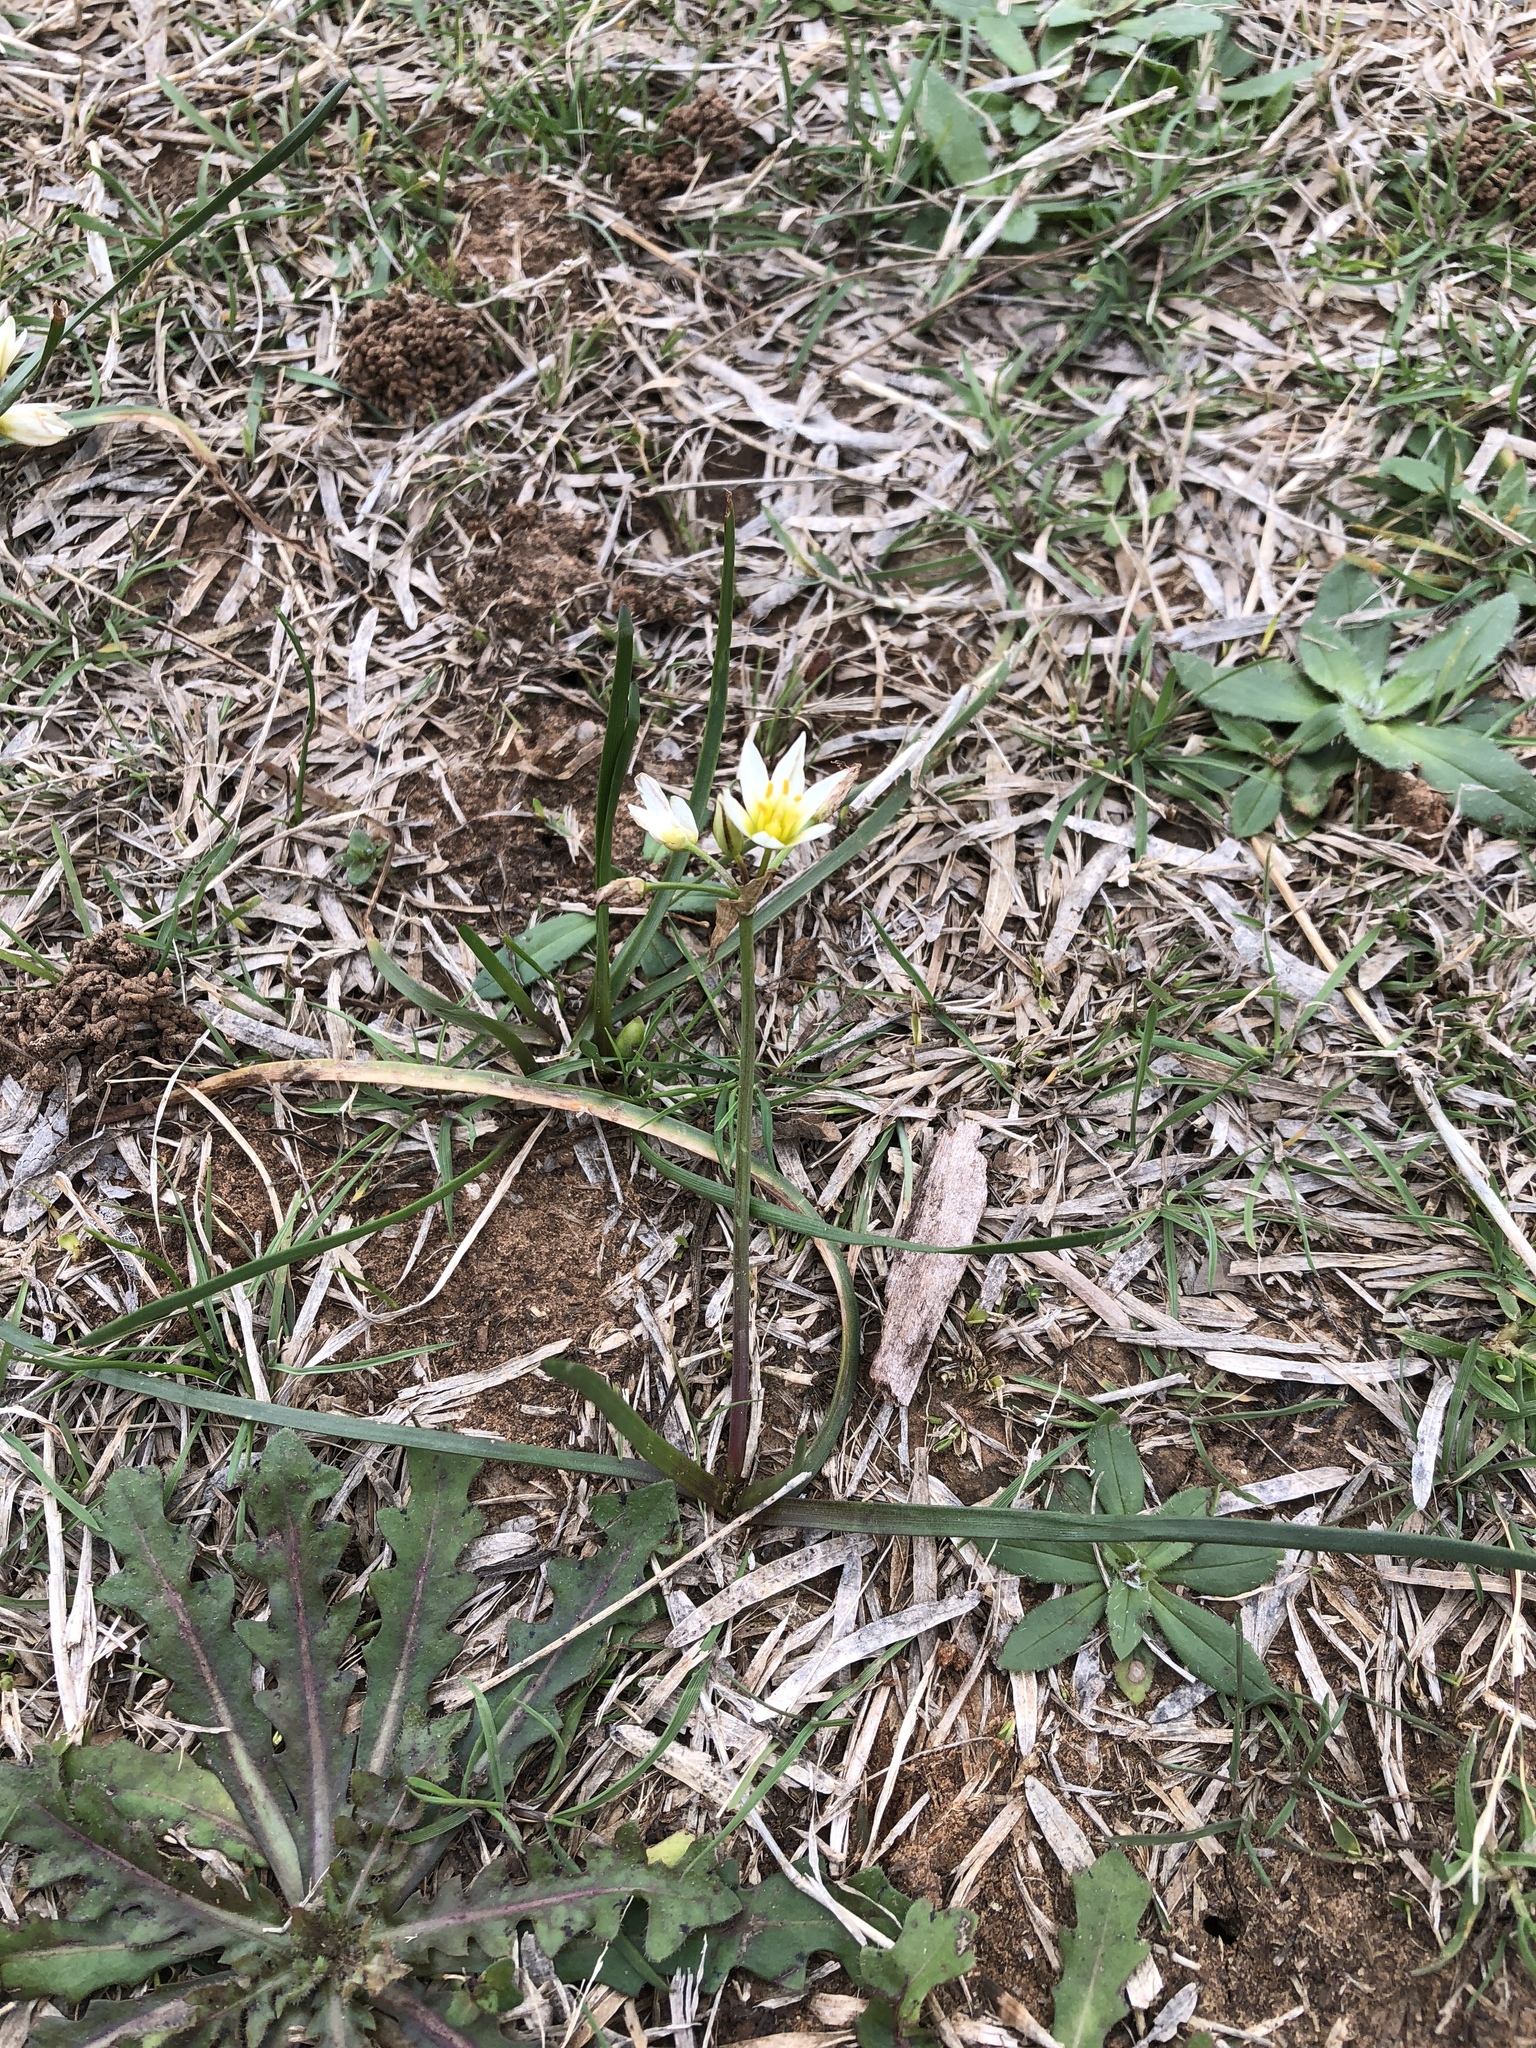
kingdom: Plantae
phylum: Tracheophyta
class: Liliopsida
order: Asparagales
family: Amaryllidaceae
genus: Nothoscordum
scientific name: Nothoscordum bivalve
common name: Crow-poison
